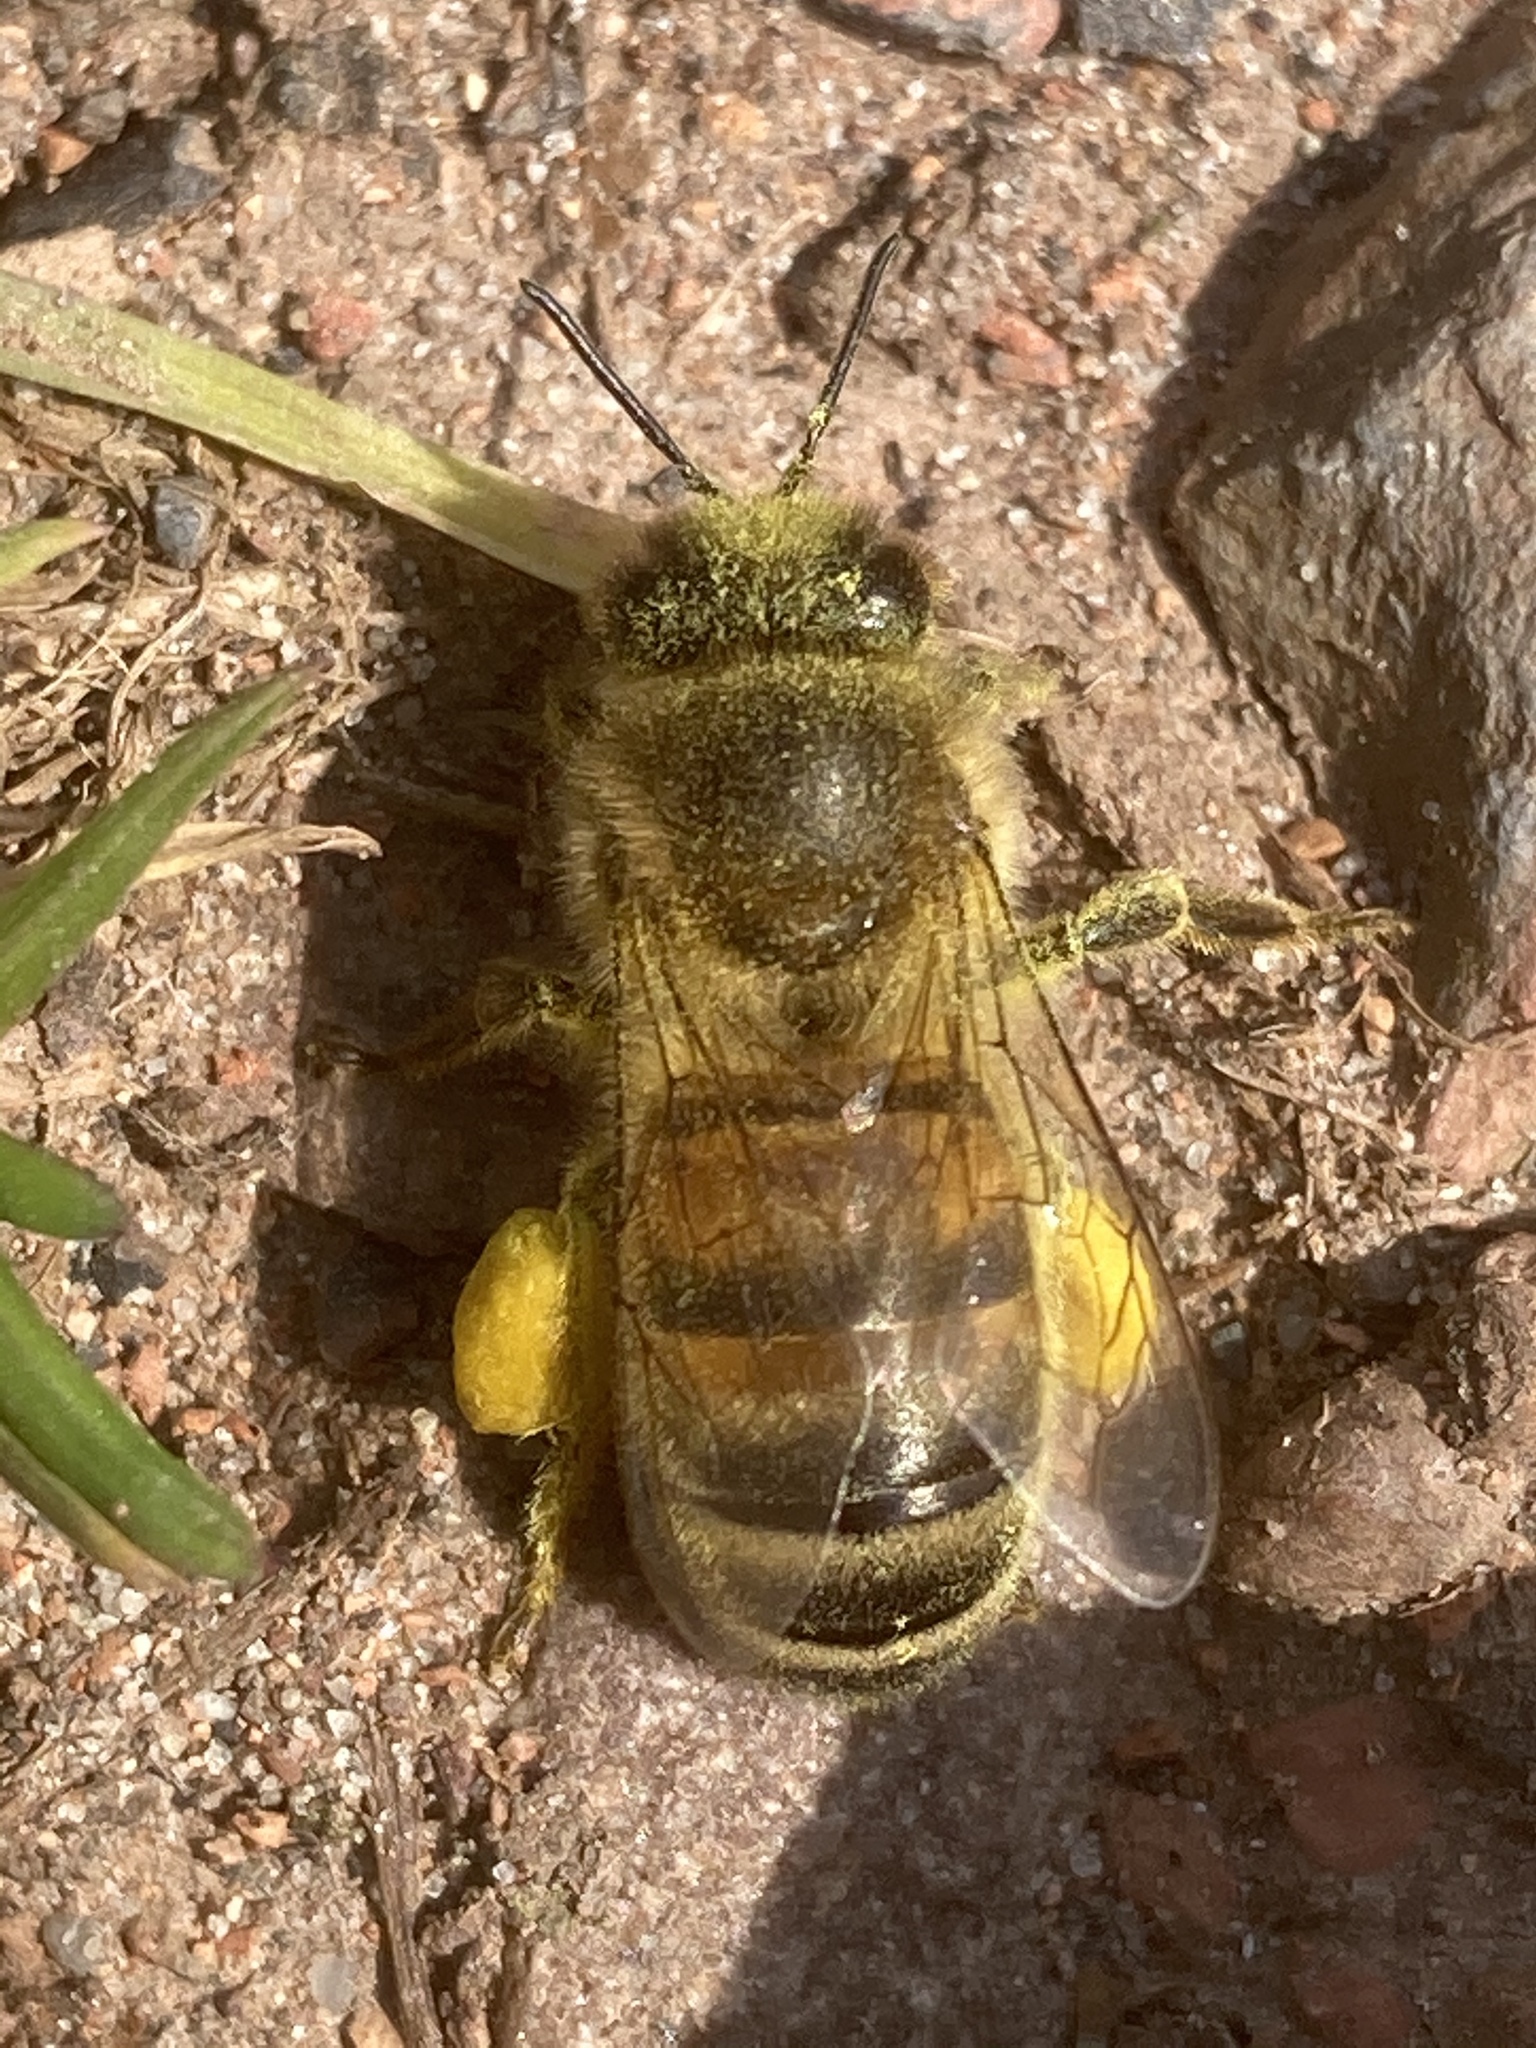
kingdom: Animalia
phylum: Arthropoda
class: Insecta
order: Hymenoptera
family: Apidae
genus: Apis
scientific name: Apis mellifera
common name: Honey bee
